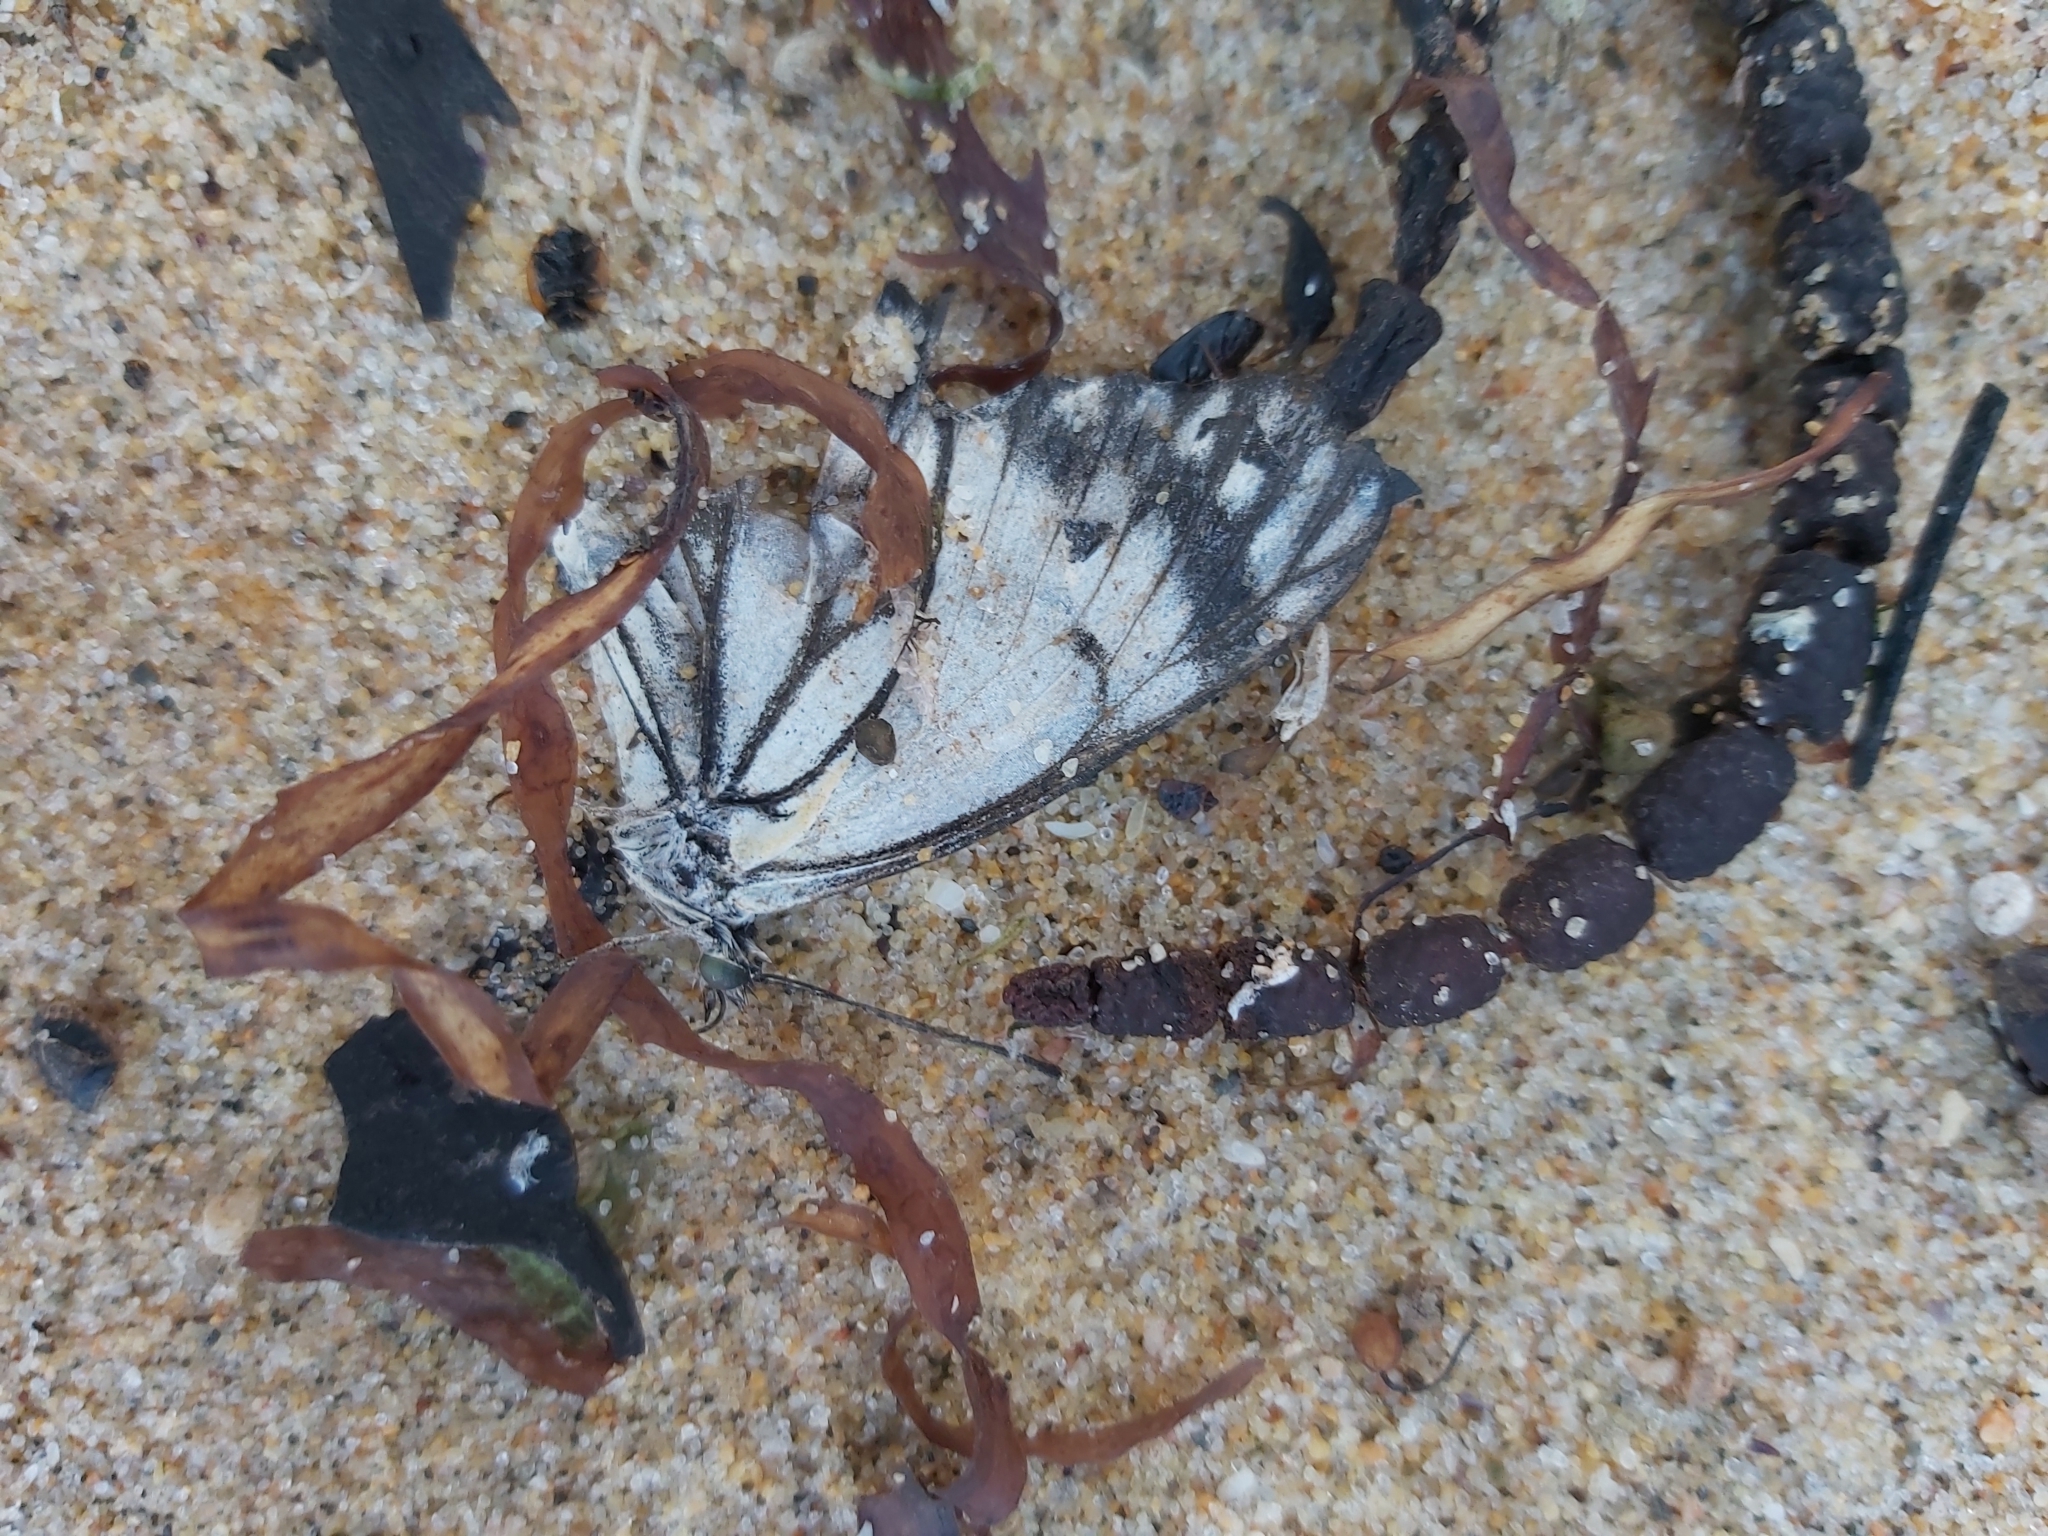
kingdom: Animalia
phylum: Arthropoda
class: Insecta
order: Lepidoptera
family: Pieridae
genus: Belenois
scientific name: Belenois java
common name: Caper white
